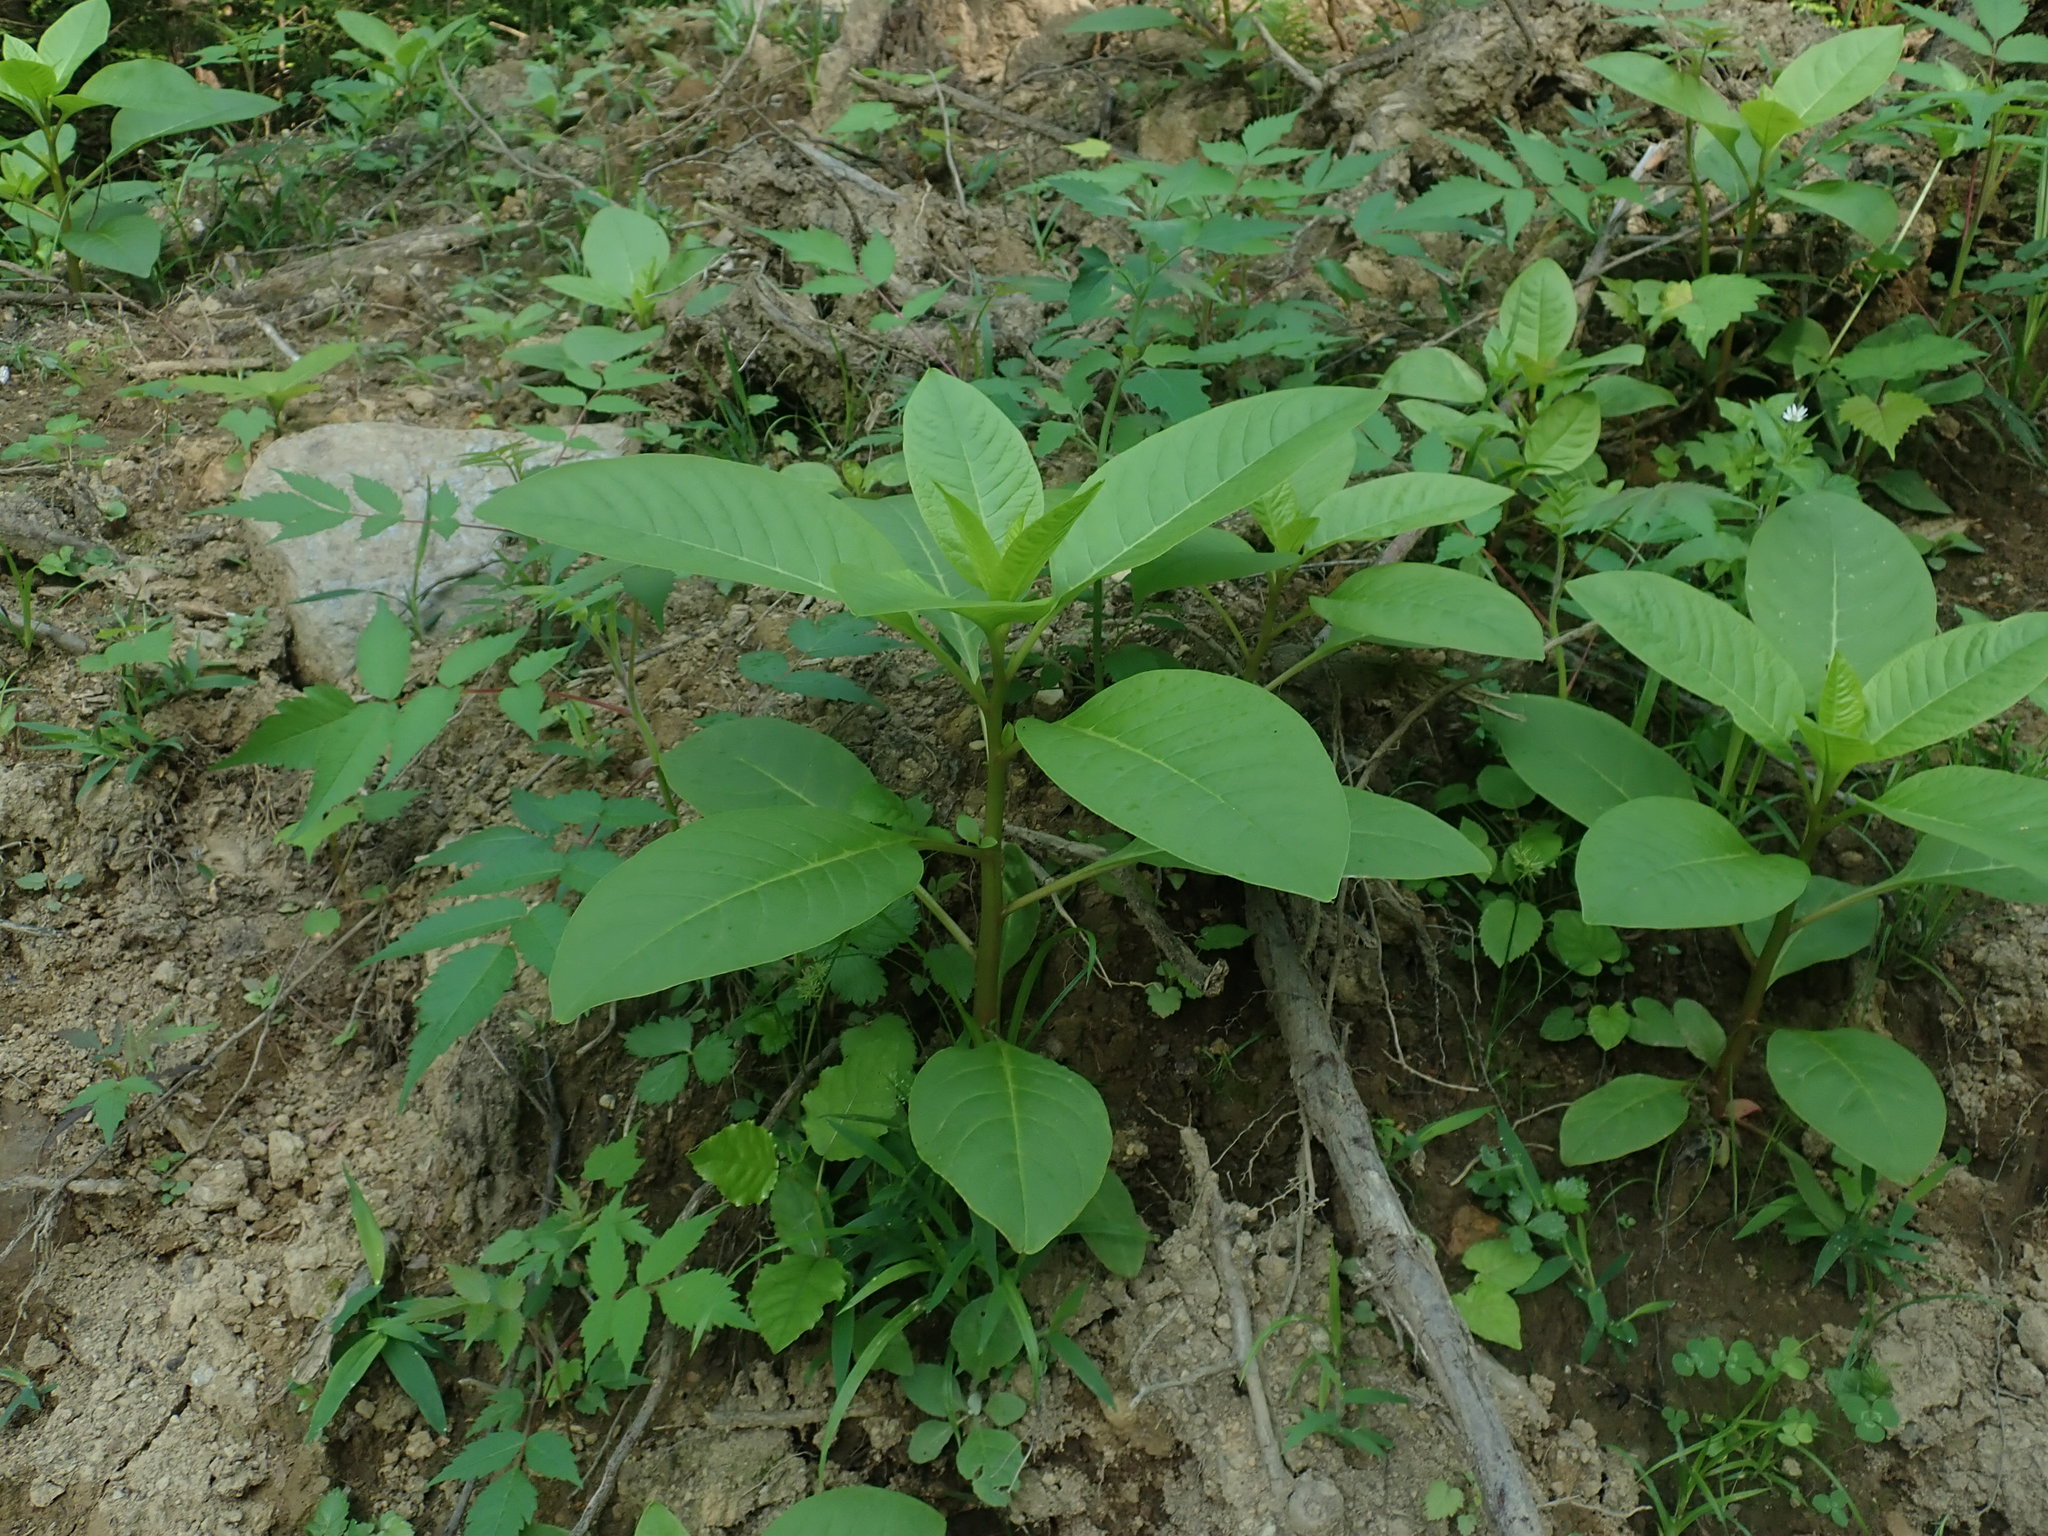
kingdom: Plantae
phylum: Tracheophyta
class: Magnoliopsida
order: Caryophyllales
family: Phytolaccaceae
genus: Phytolacca
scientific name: Phytolacca americana
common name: American pokeweed
